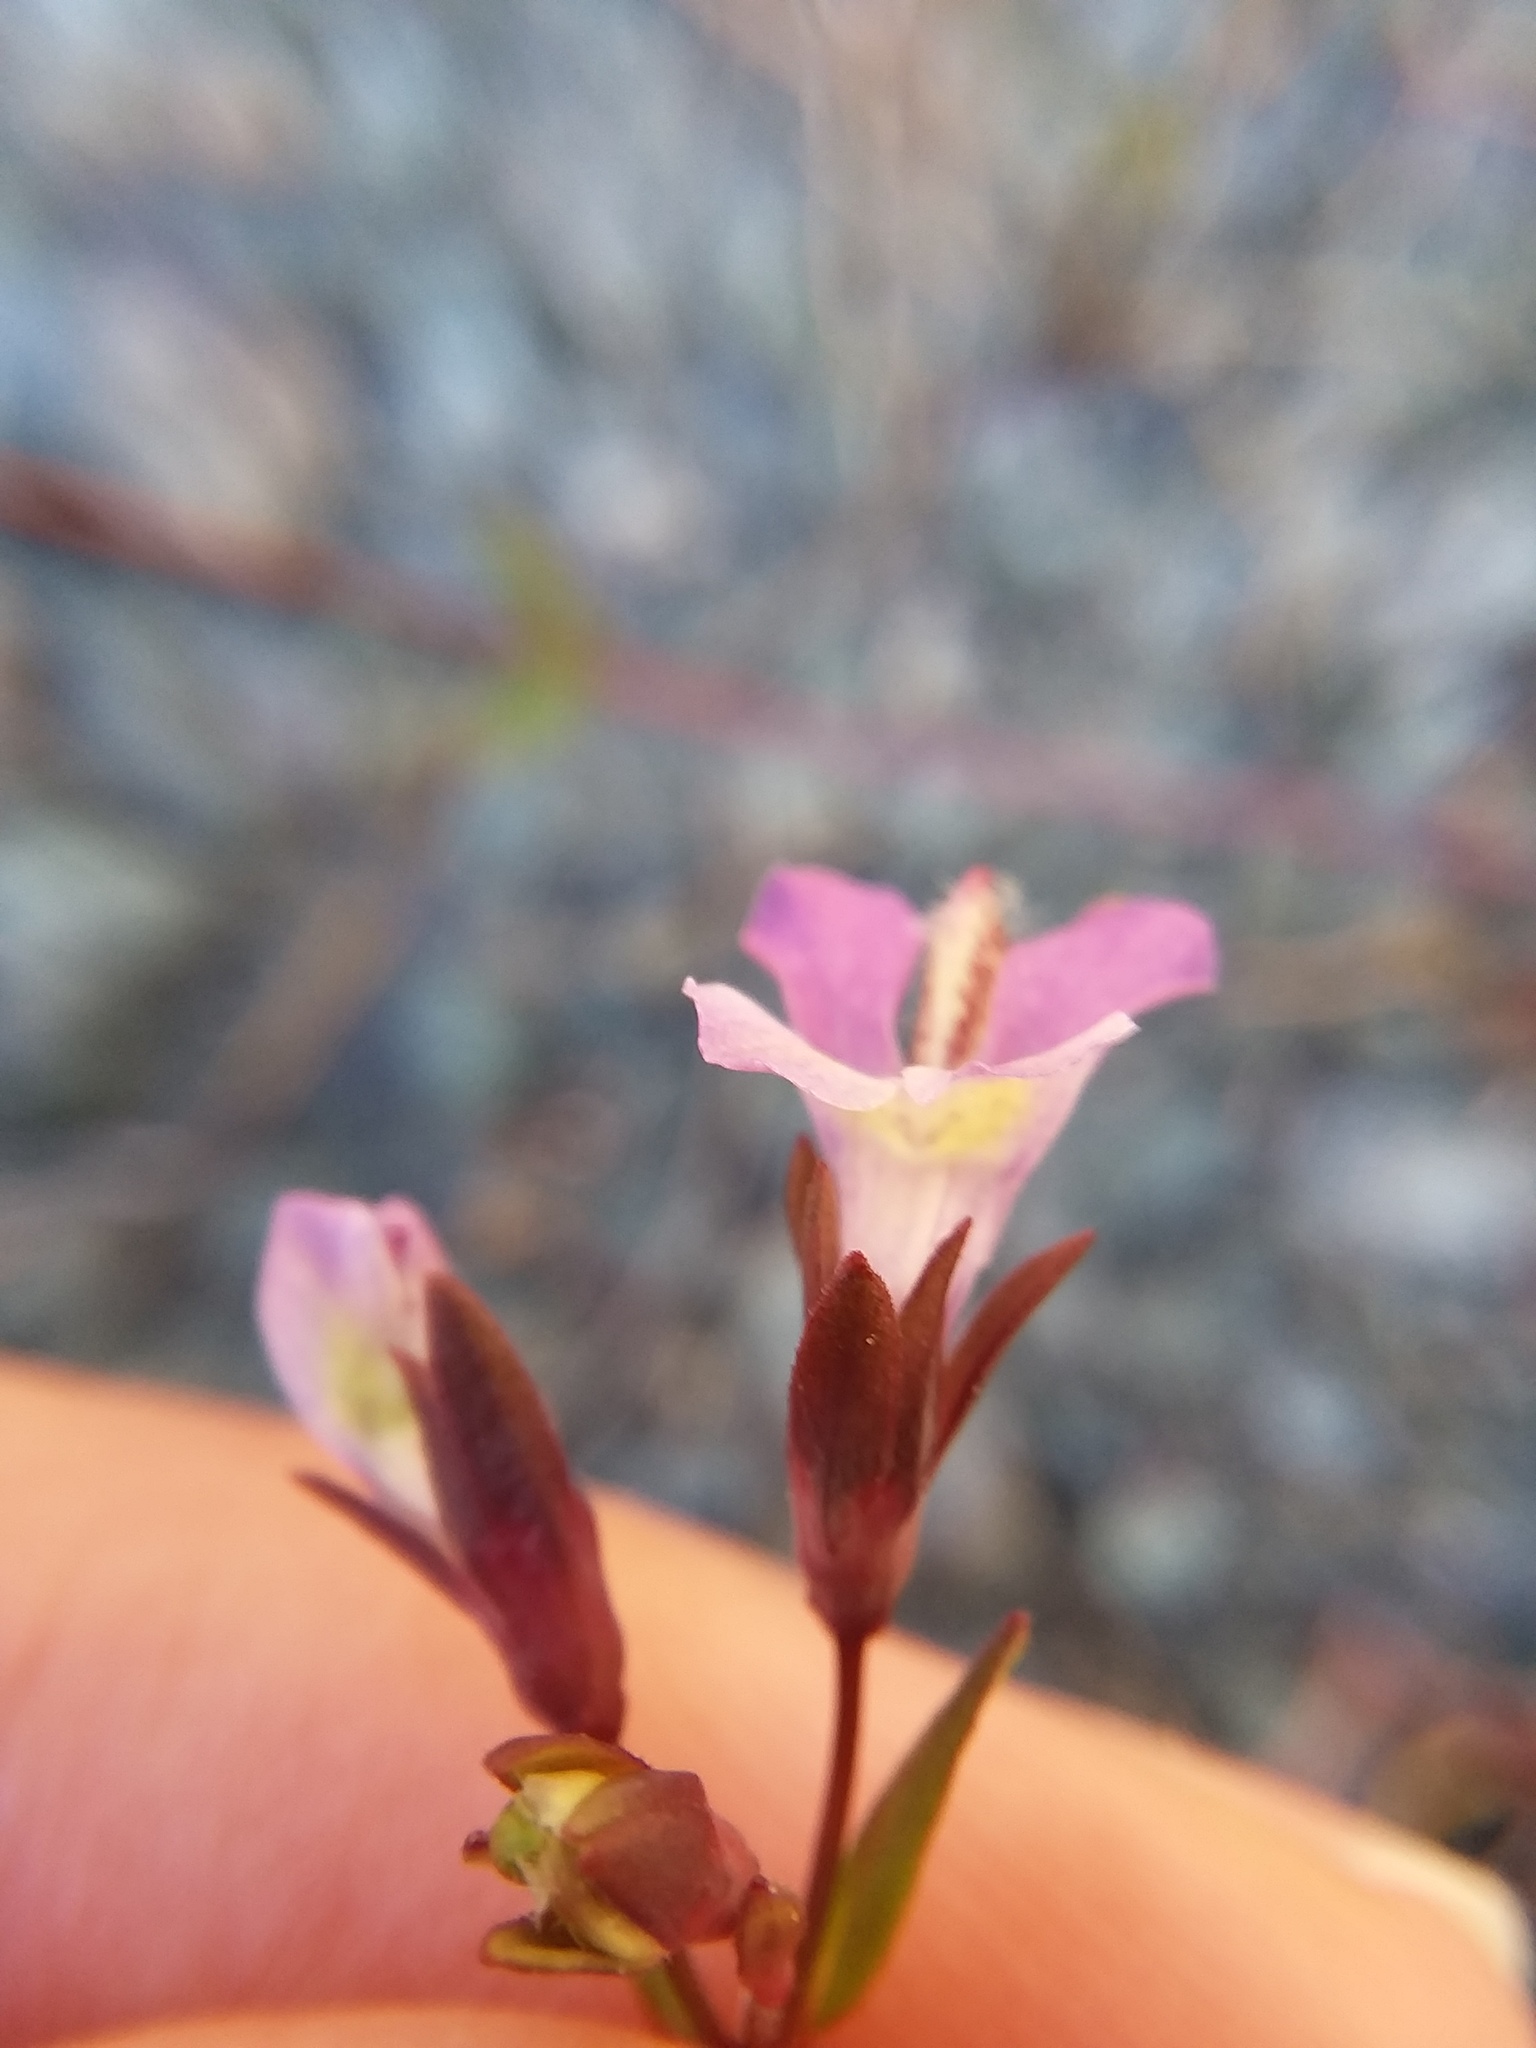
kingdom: Plantae
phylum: Tracheophyta
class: Magnoliopsida
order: Lamiales
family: Plantaginaceae
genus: Collinsia
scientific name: Collinsia sparsiflora
